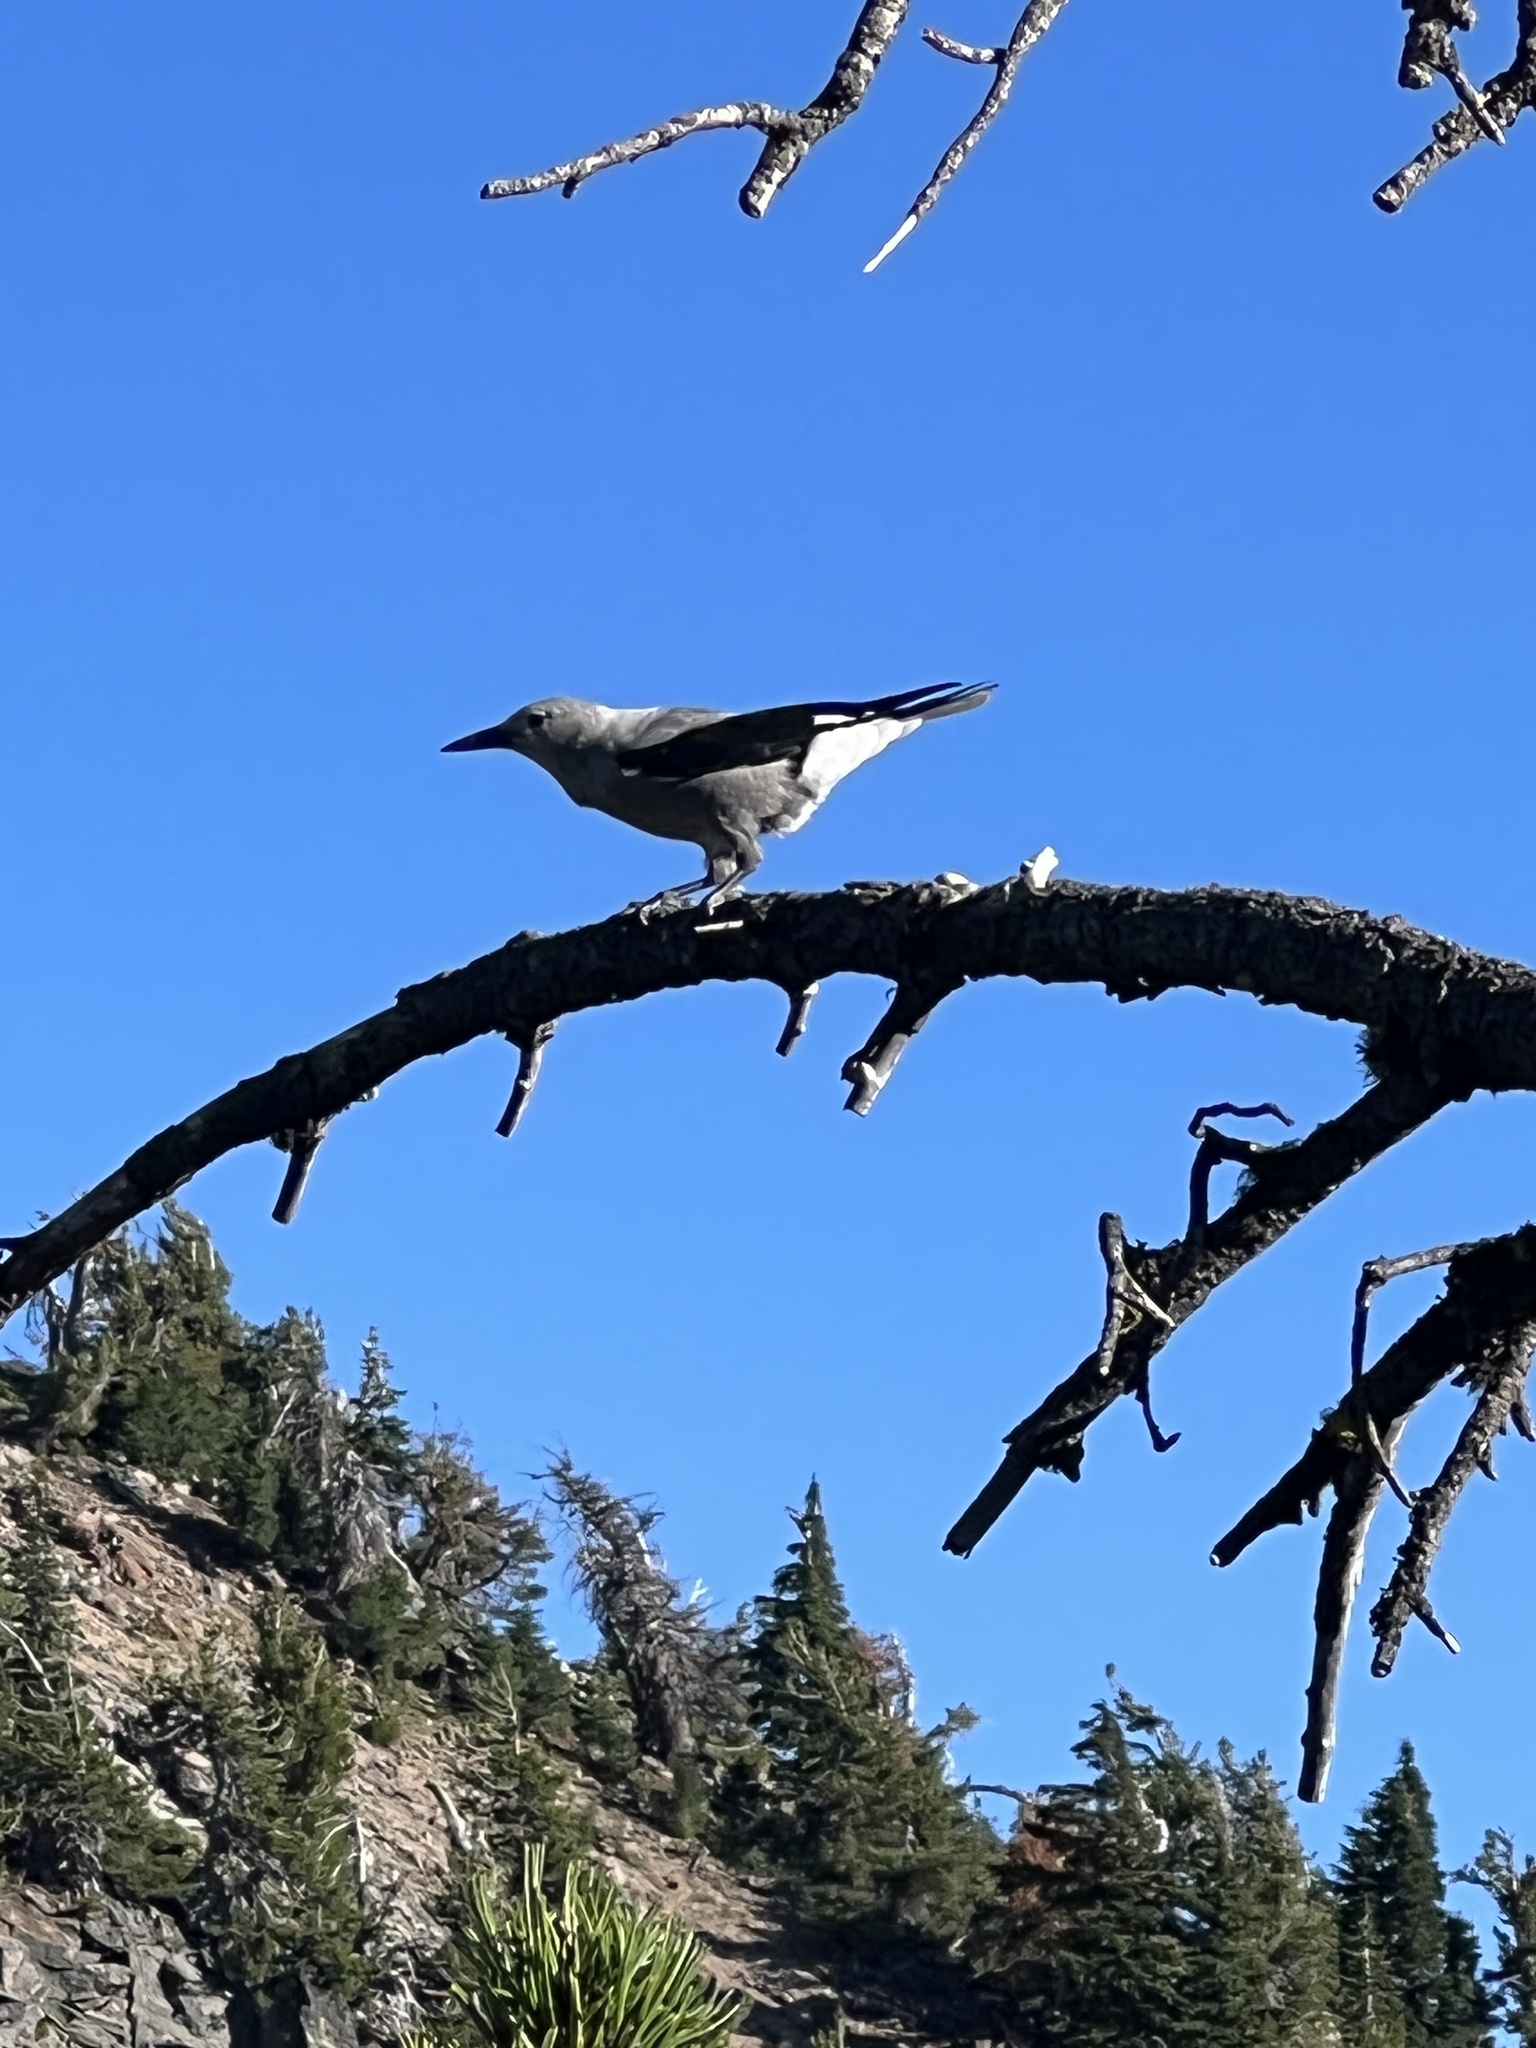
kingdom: Animalia
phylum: Chordata
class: Aves
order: Passeriformes
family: Corvidae
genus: Nucifraga
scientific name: Nucifraga columbiana
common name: Clark's nutcracker
